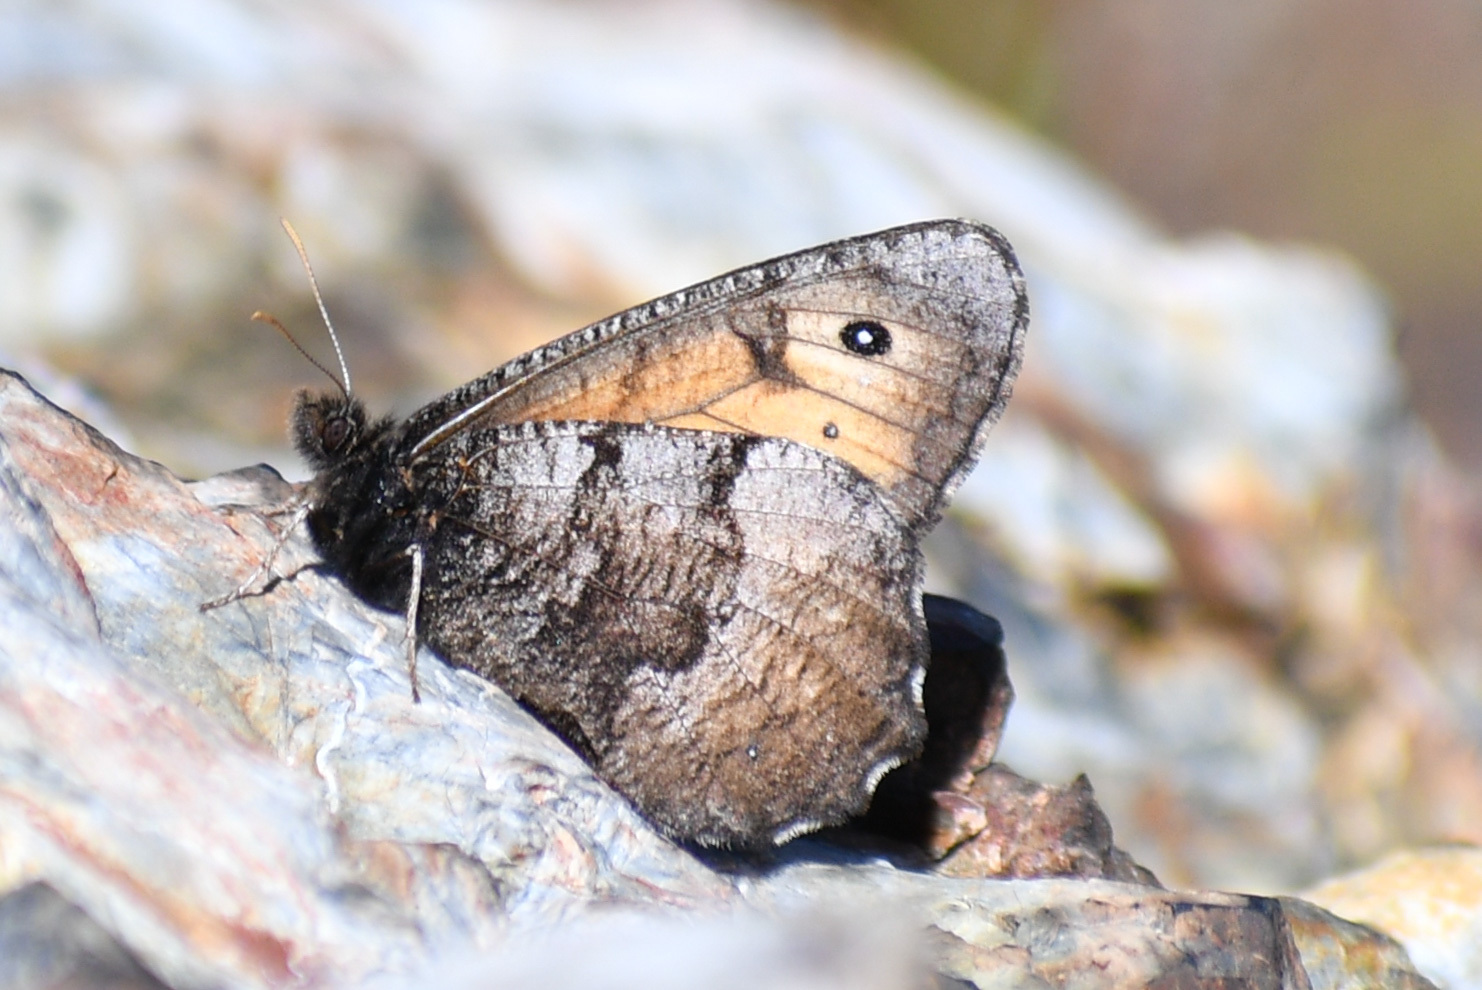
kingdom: Animalia
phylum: Arthropoda
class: Insecta
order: Lepidoptera
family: Nymphalidae
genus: Oeneis
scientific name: Oeneis macounii
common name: Macoun's arctic
